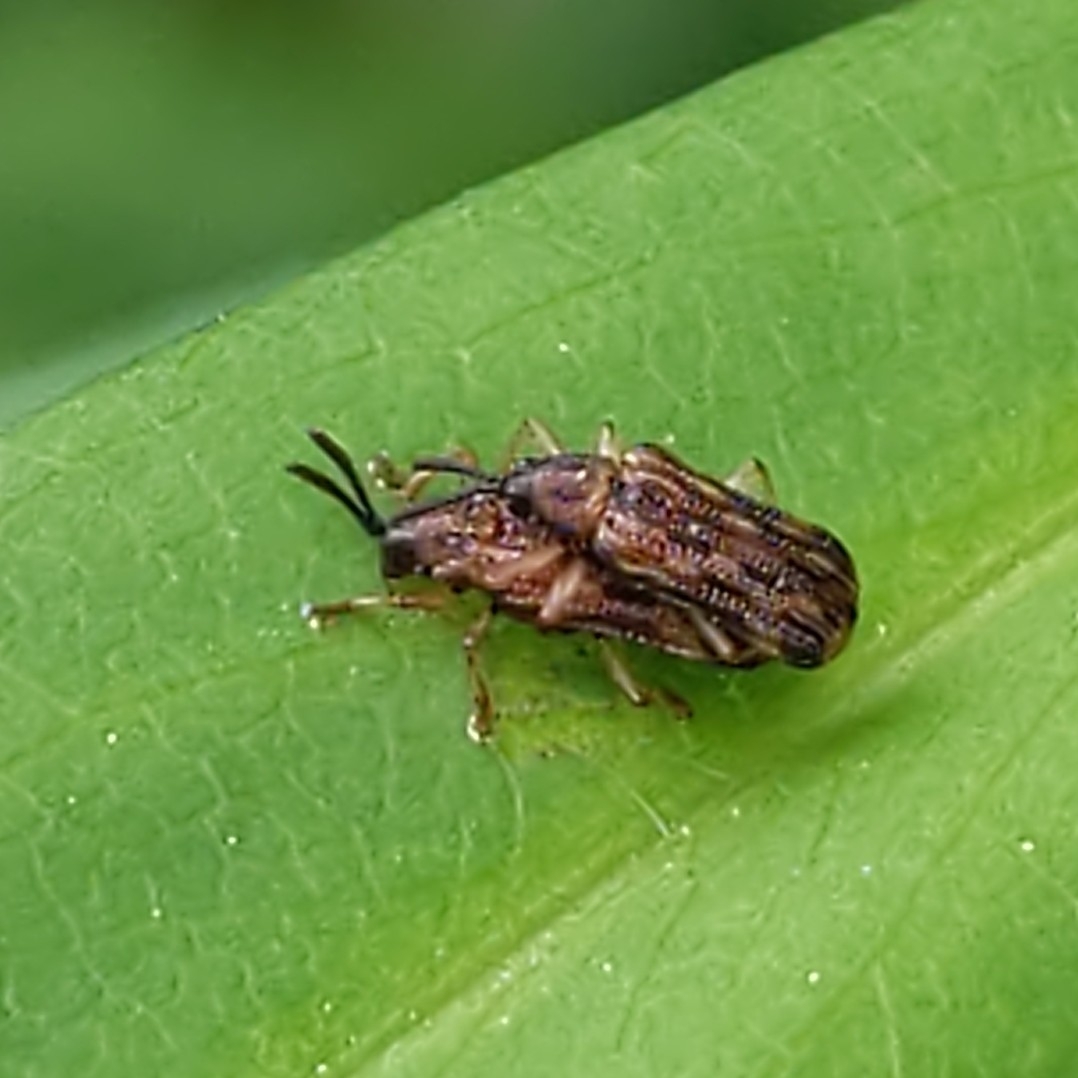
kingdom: Animalia
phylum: Arthropoda
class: Insecta
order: Coleoptera
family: Chrysomelidae
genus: Sumitrosis
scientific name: Sumitrosis inaequalis
